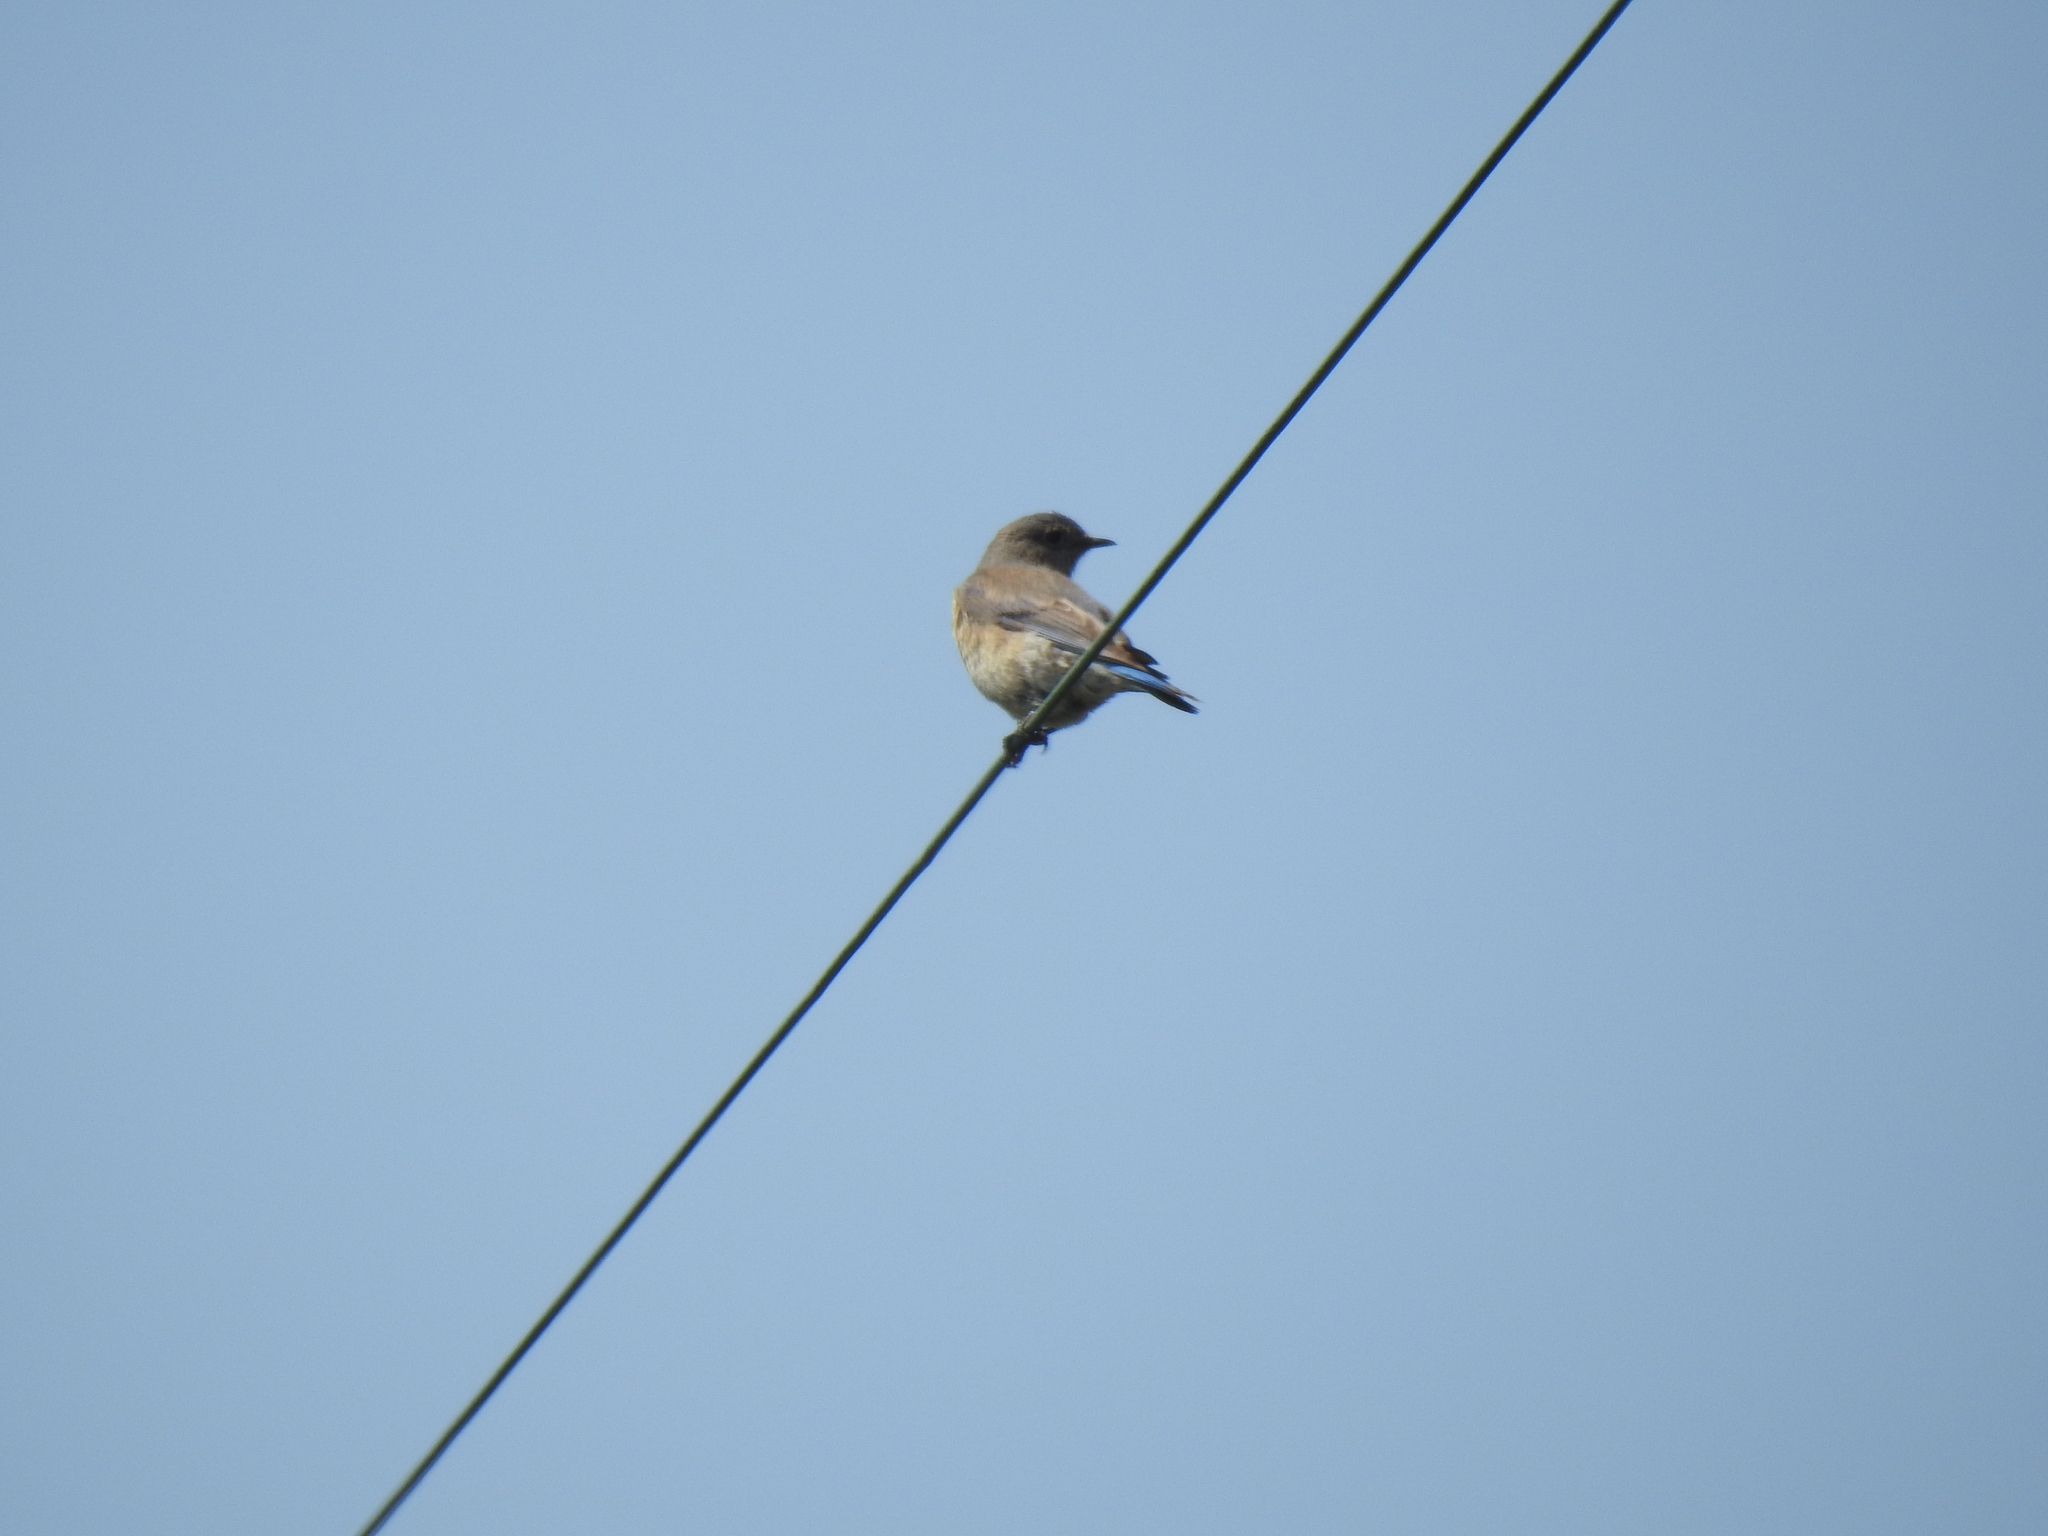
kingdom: Animalia
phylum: Chordata
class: Aves
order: Passeriformes
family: Turdidae
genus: Sialia
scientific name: Sialia mexicana
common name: Western bluebird
